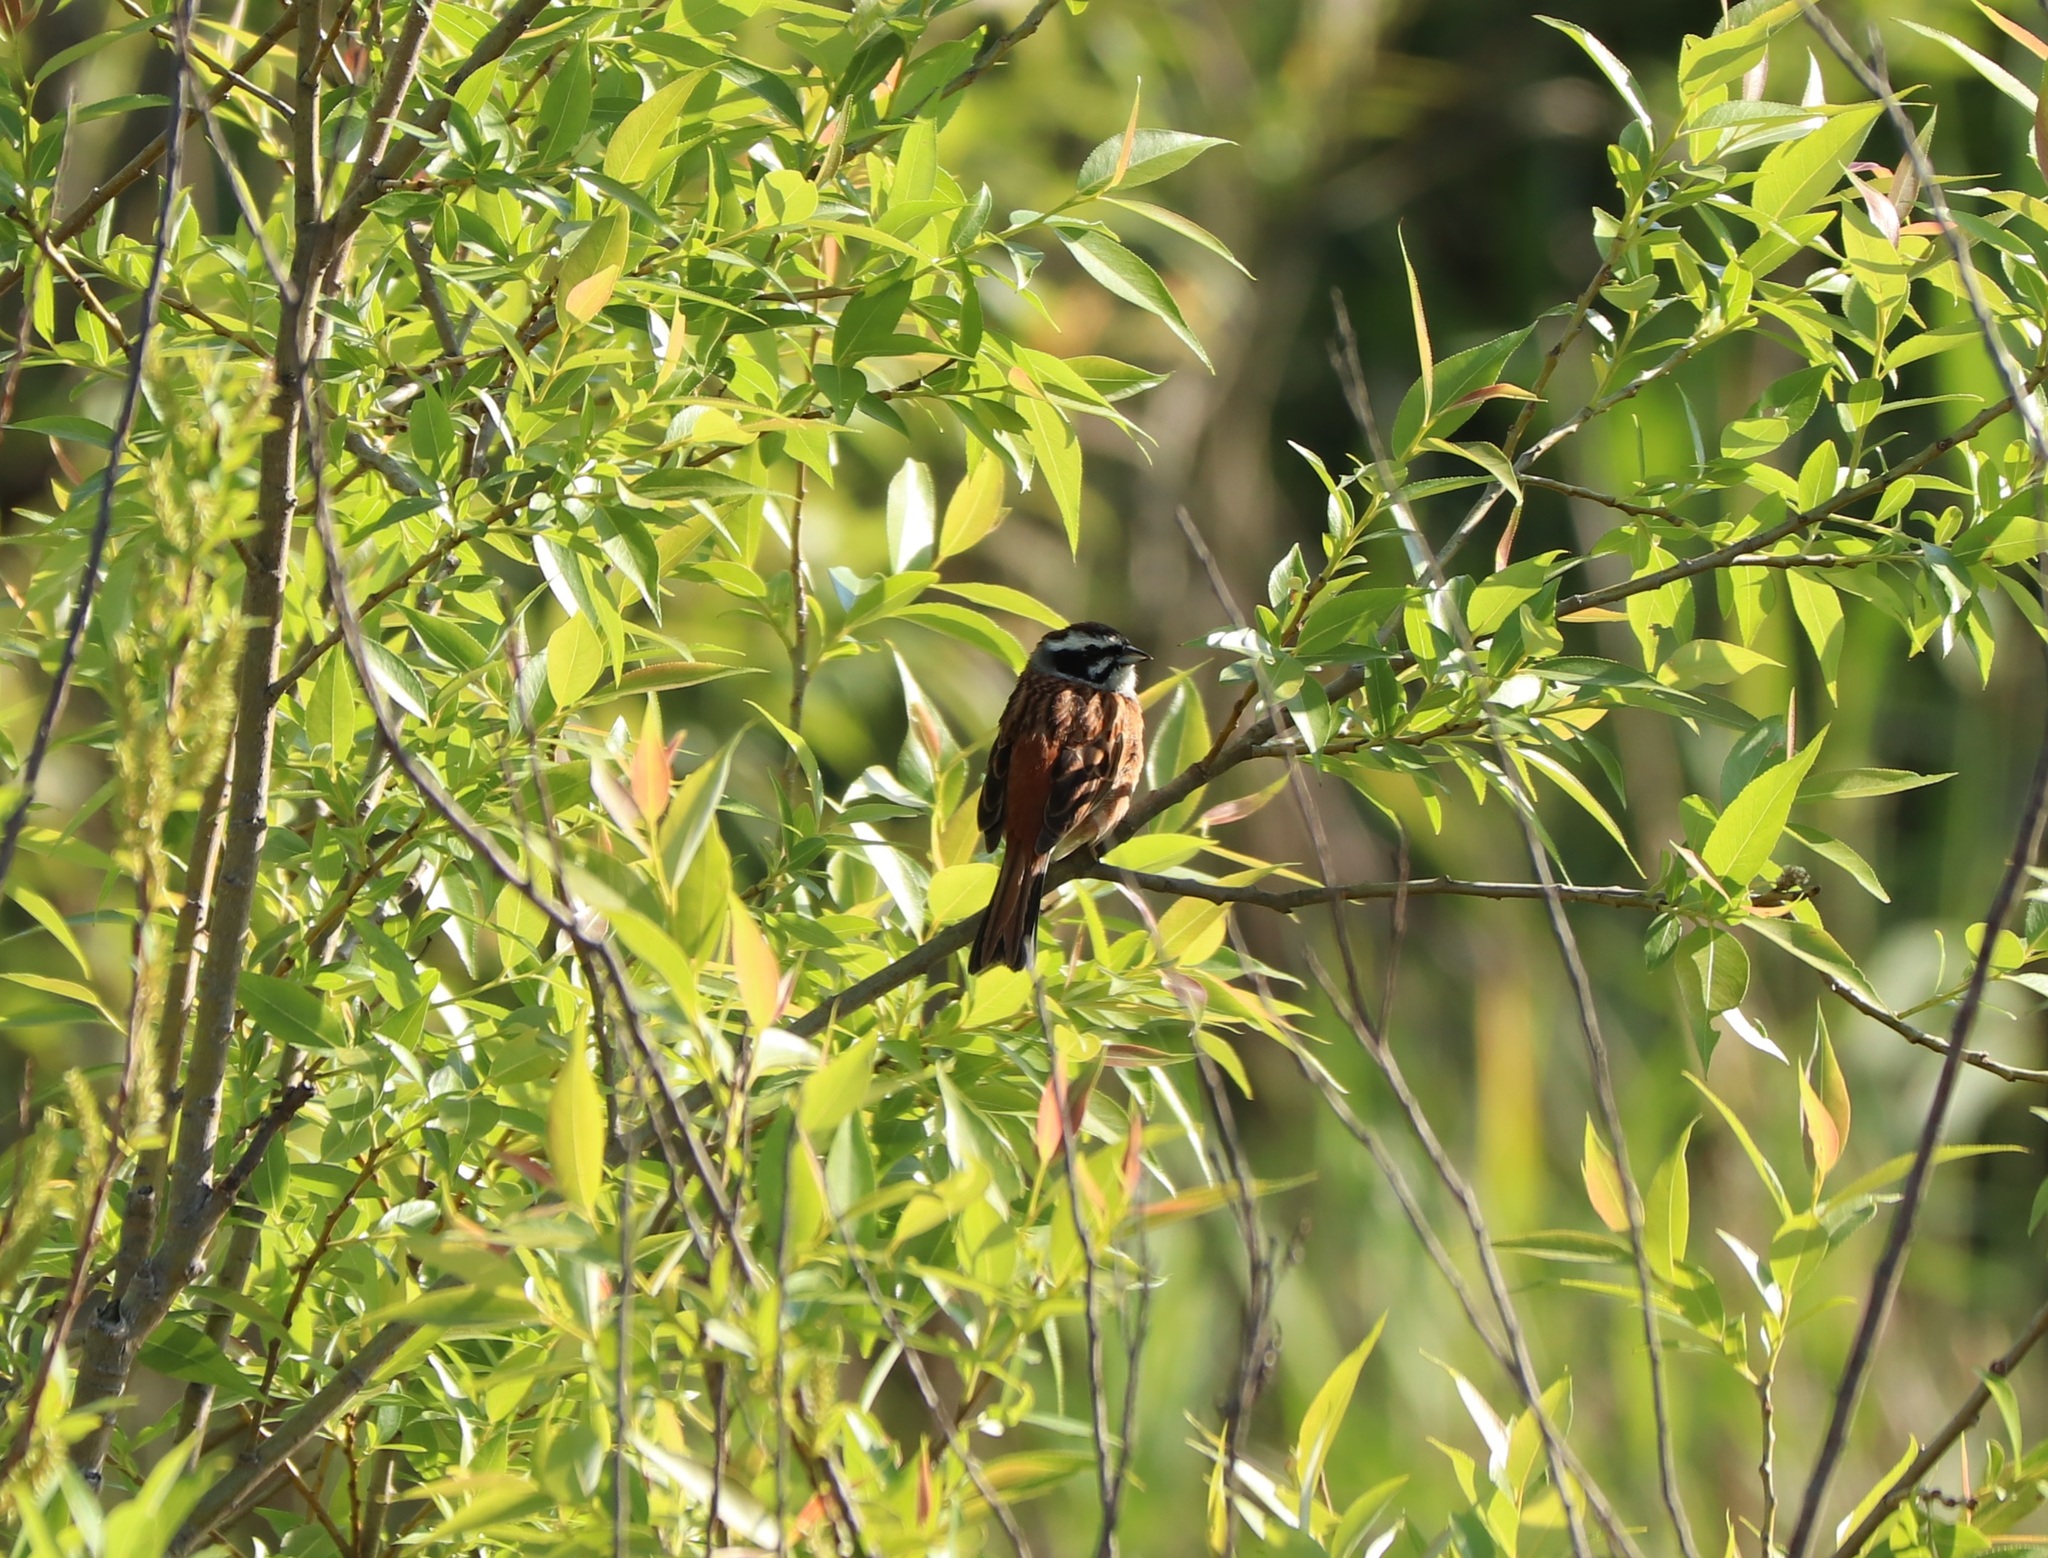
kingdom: Animalia
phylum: Chordata
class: Aves
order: Passeriformes
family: Emberizidae
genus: Emberiza
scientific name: Emberiza cioides
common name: Meadow bunting
